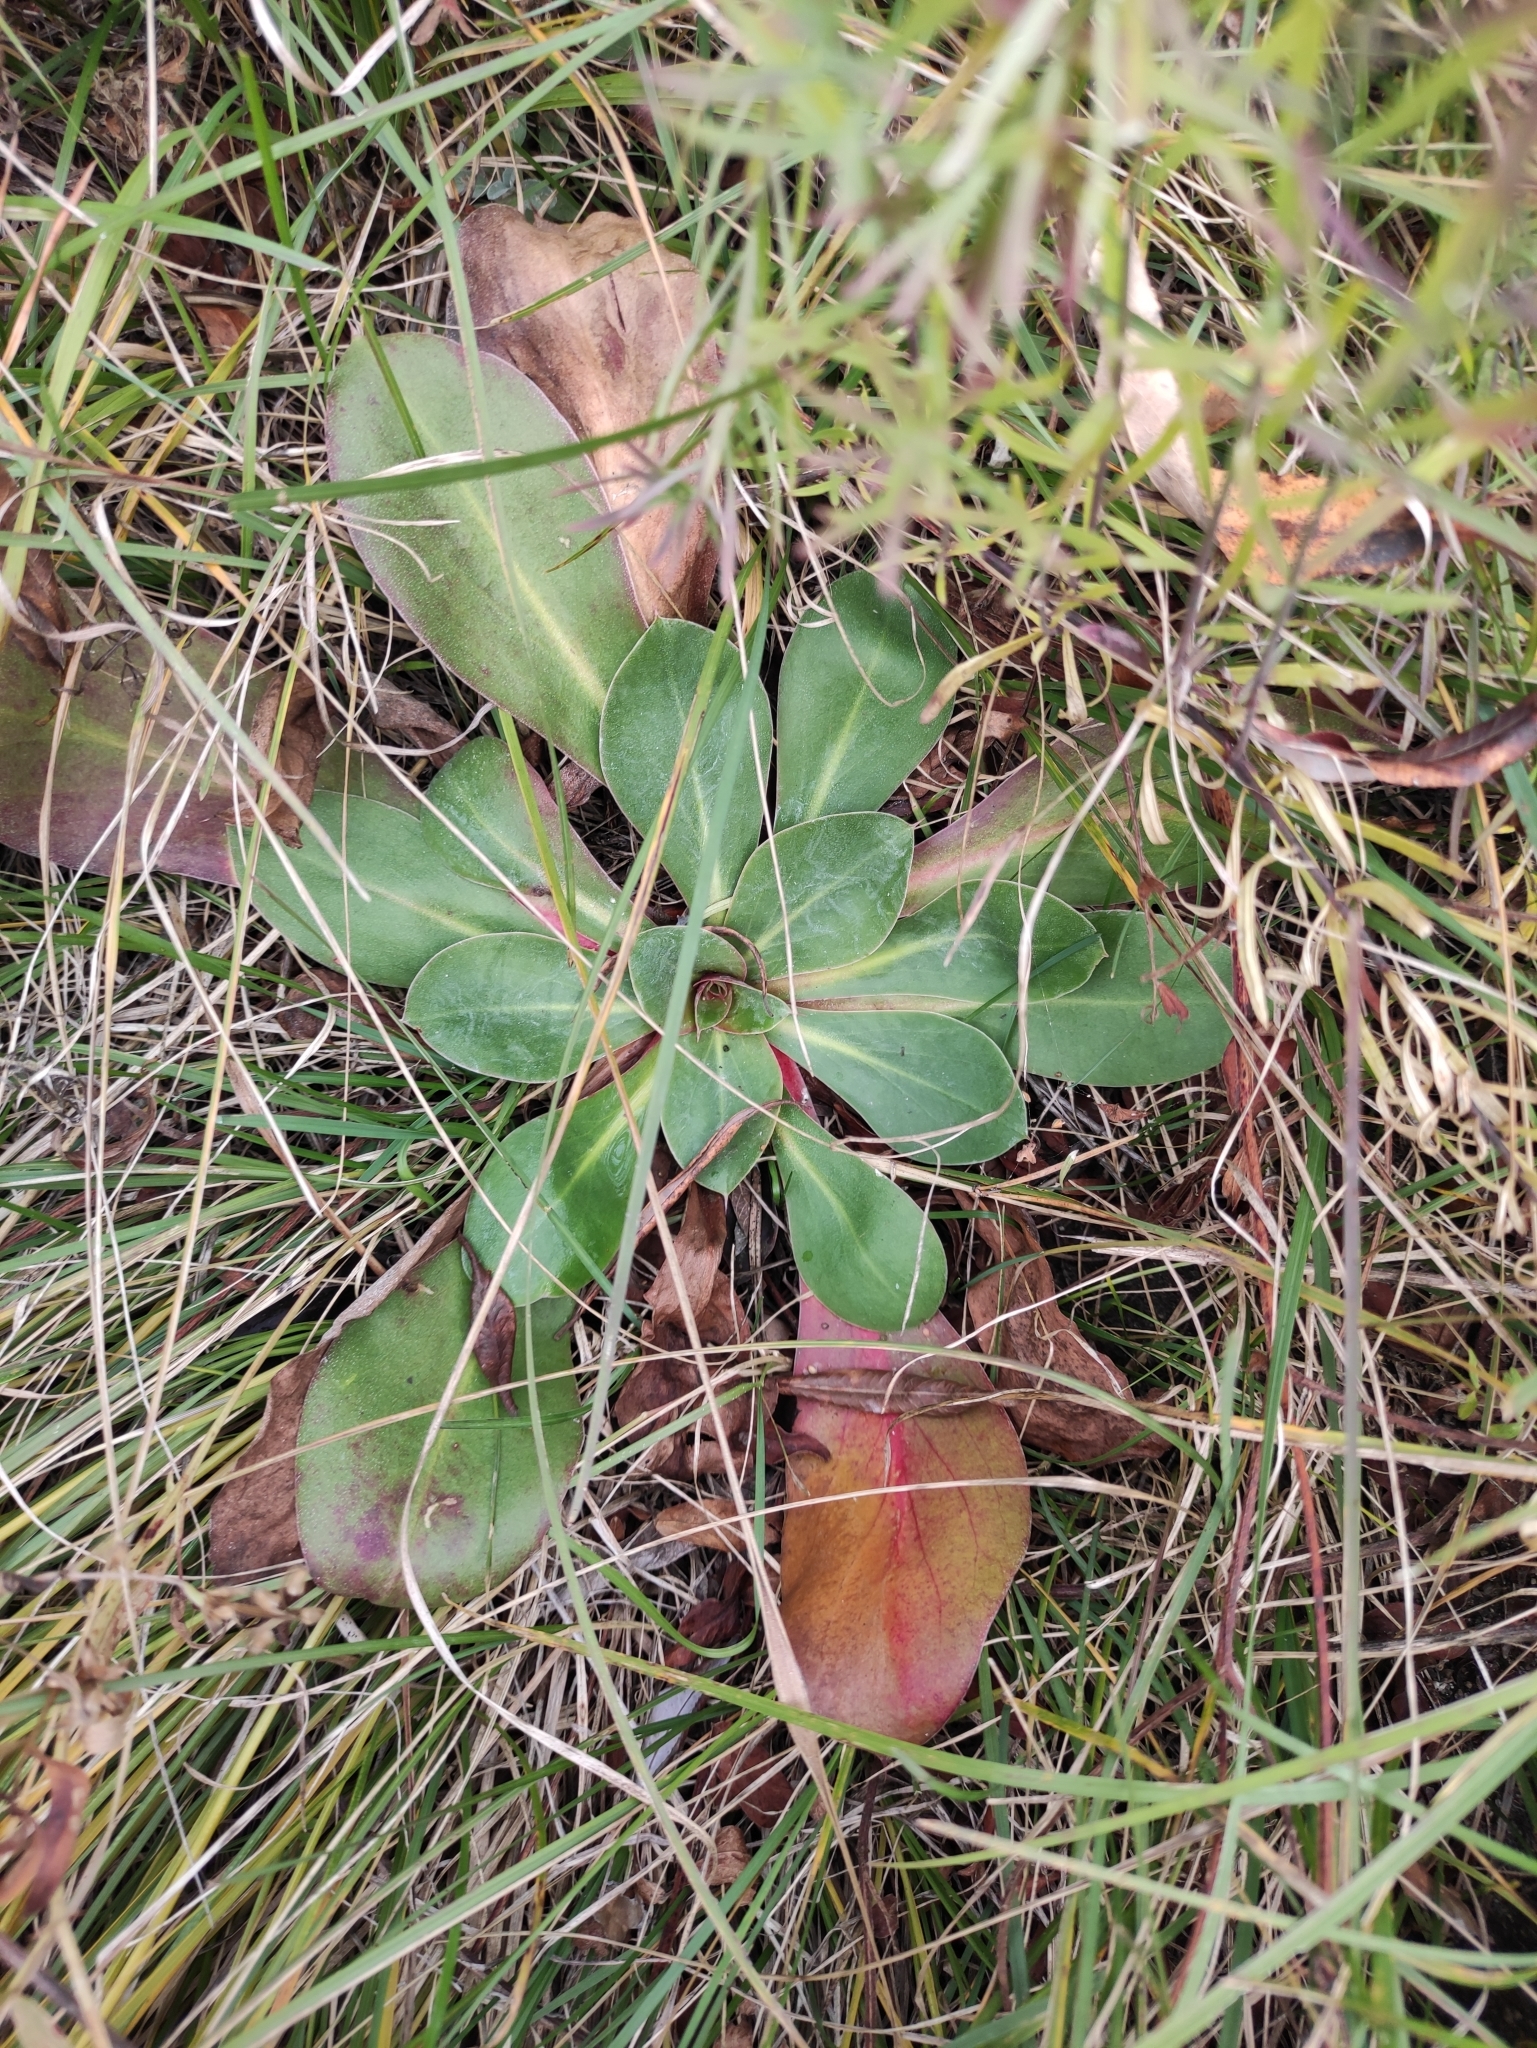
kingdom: Plantae
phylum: Tracheophyta
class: Magnoliopsida
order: Caryophyllales
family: Plumbaginaceae
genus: Goniolimon
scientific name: Goniolimon speciosum
